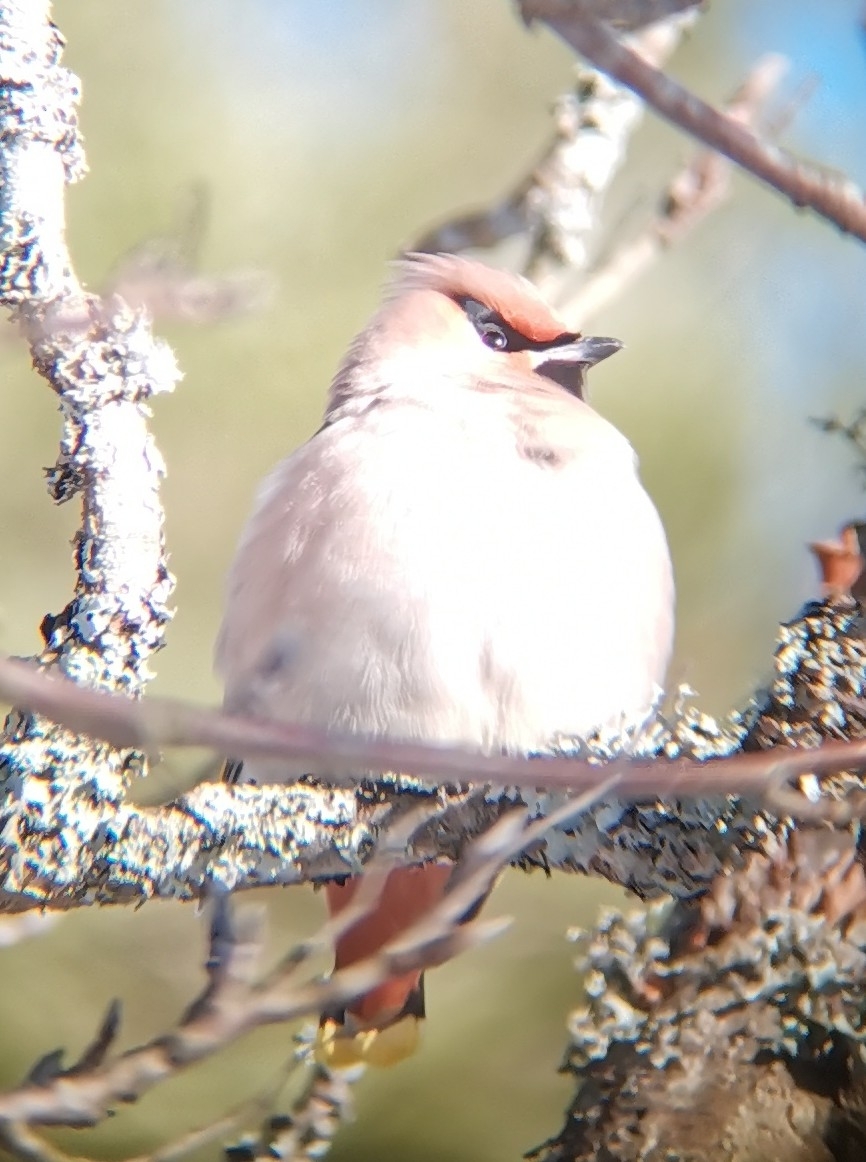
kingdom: Animalia
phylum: Chordata
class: Aves
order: Passeriformes
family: Bombycillidae
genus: Bombycilla
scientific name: Bombycilla garrulus
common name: Bohemian waxwing
